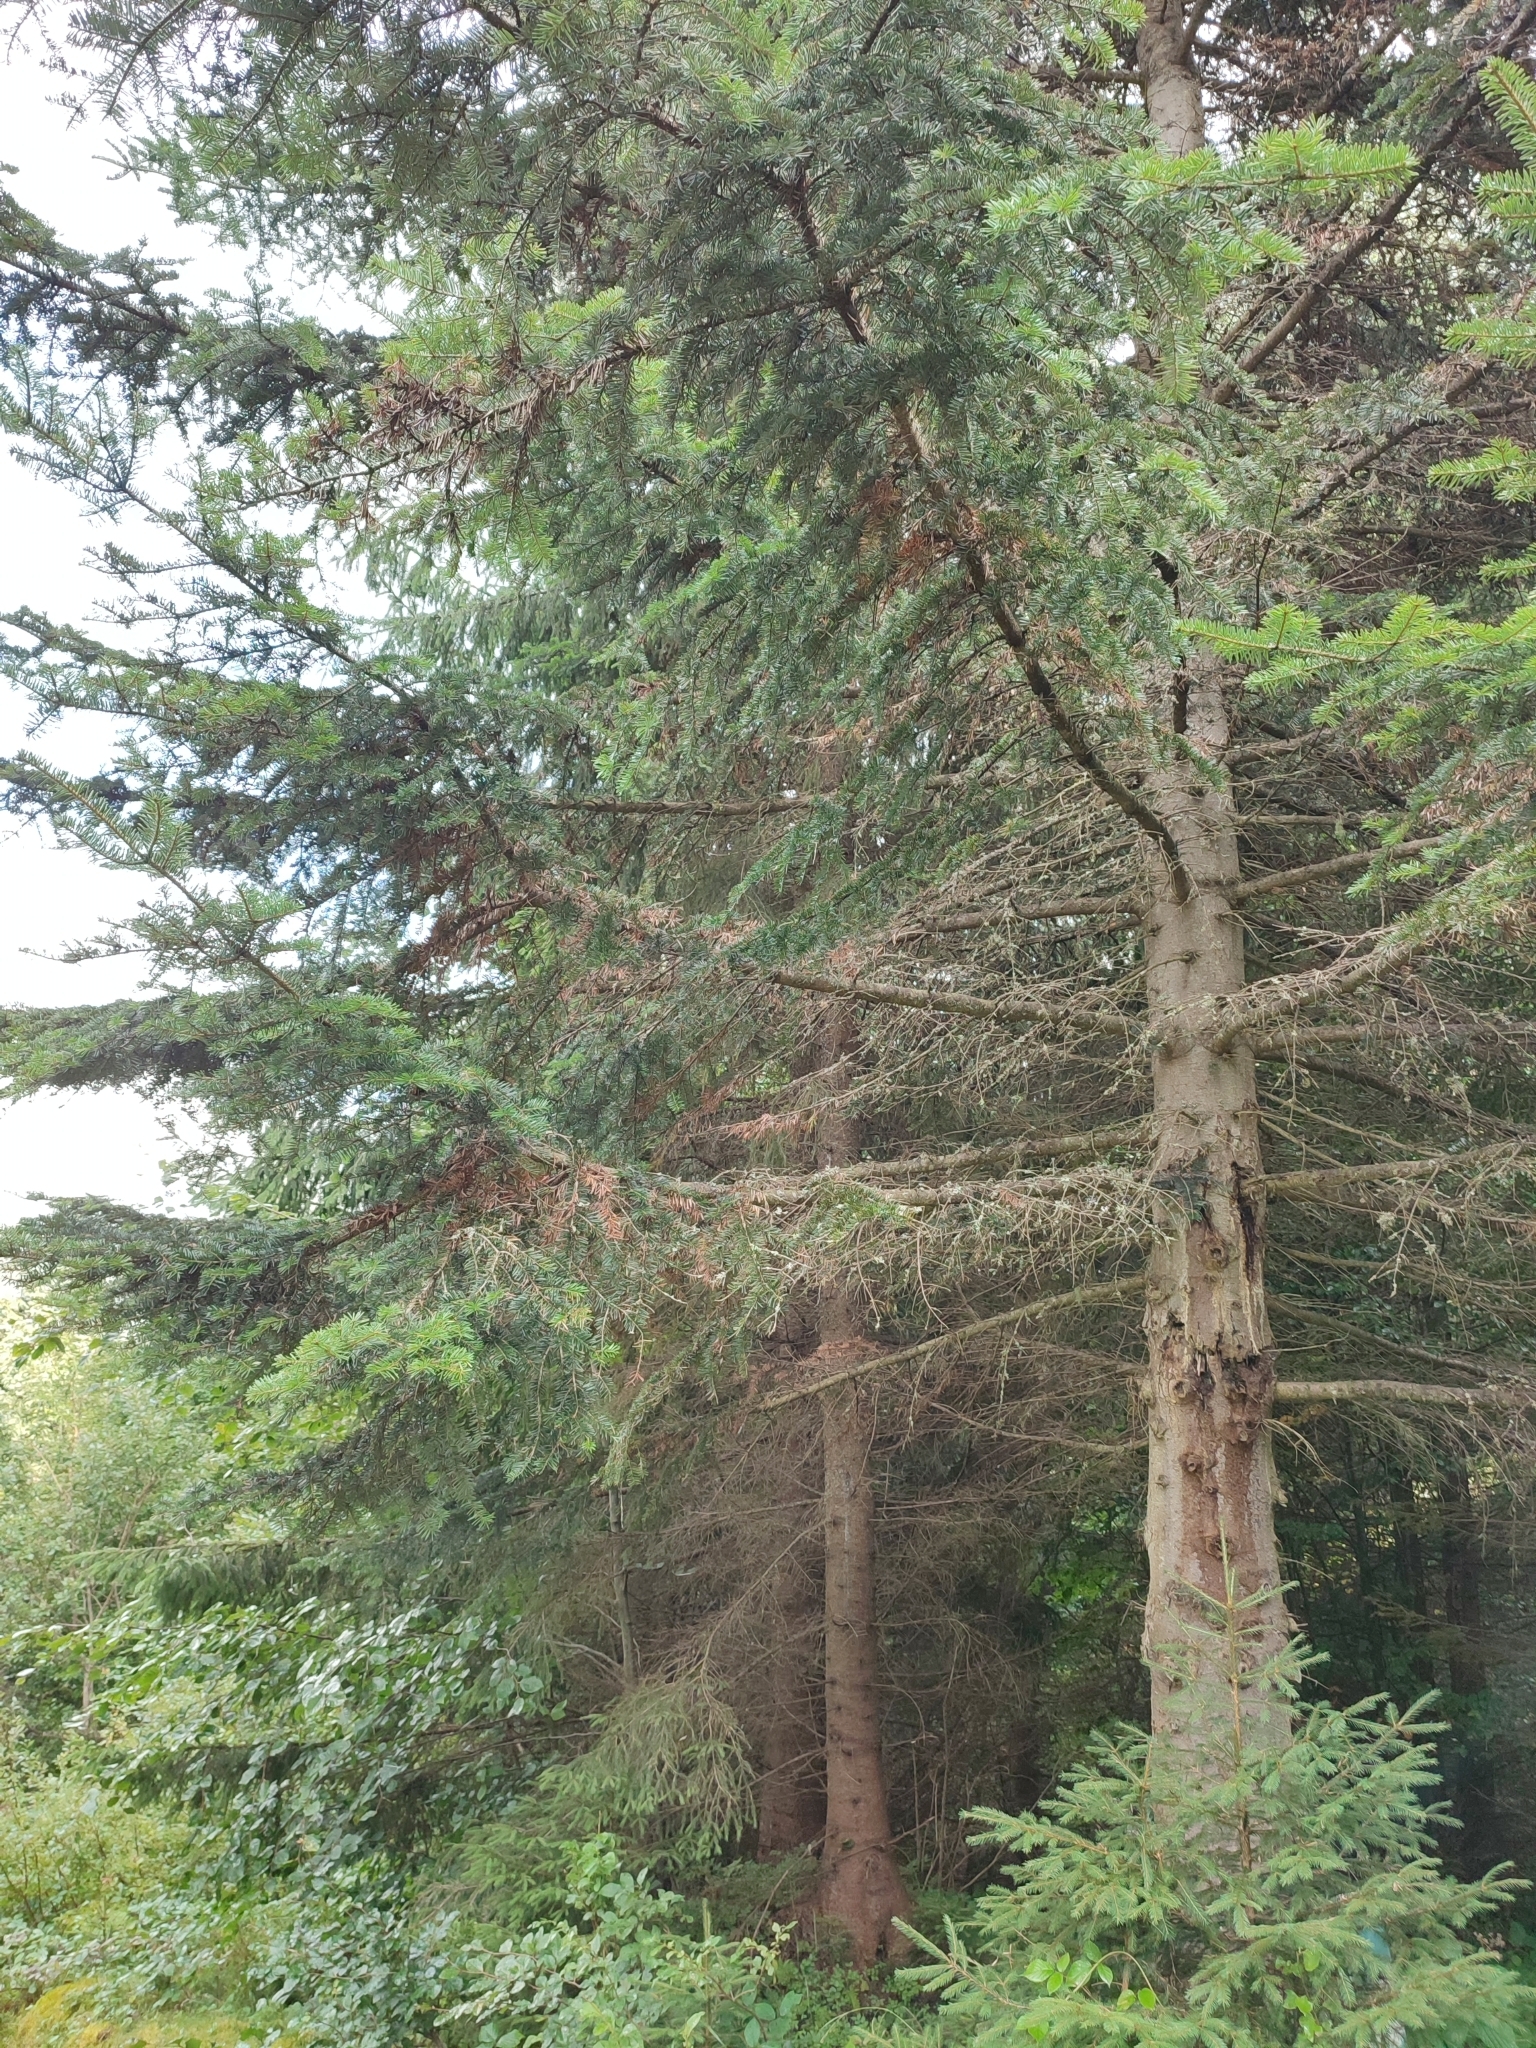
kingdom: Plantae
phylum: Tracheophyta
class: Pinopsida
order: Pinales
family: Pinaceae
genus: Abies
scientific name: Abies alba
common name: Silver fir
